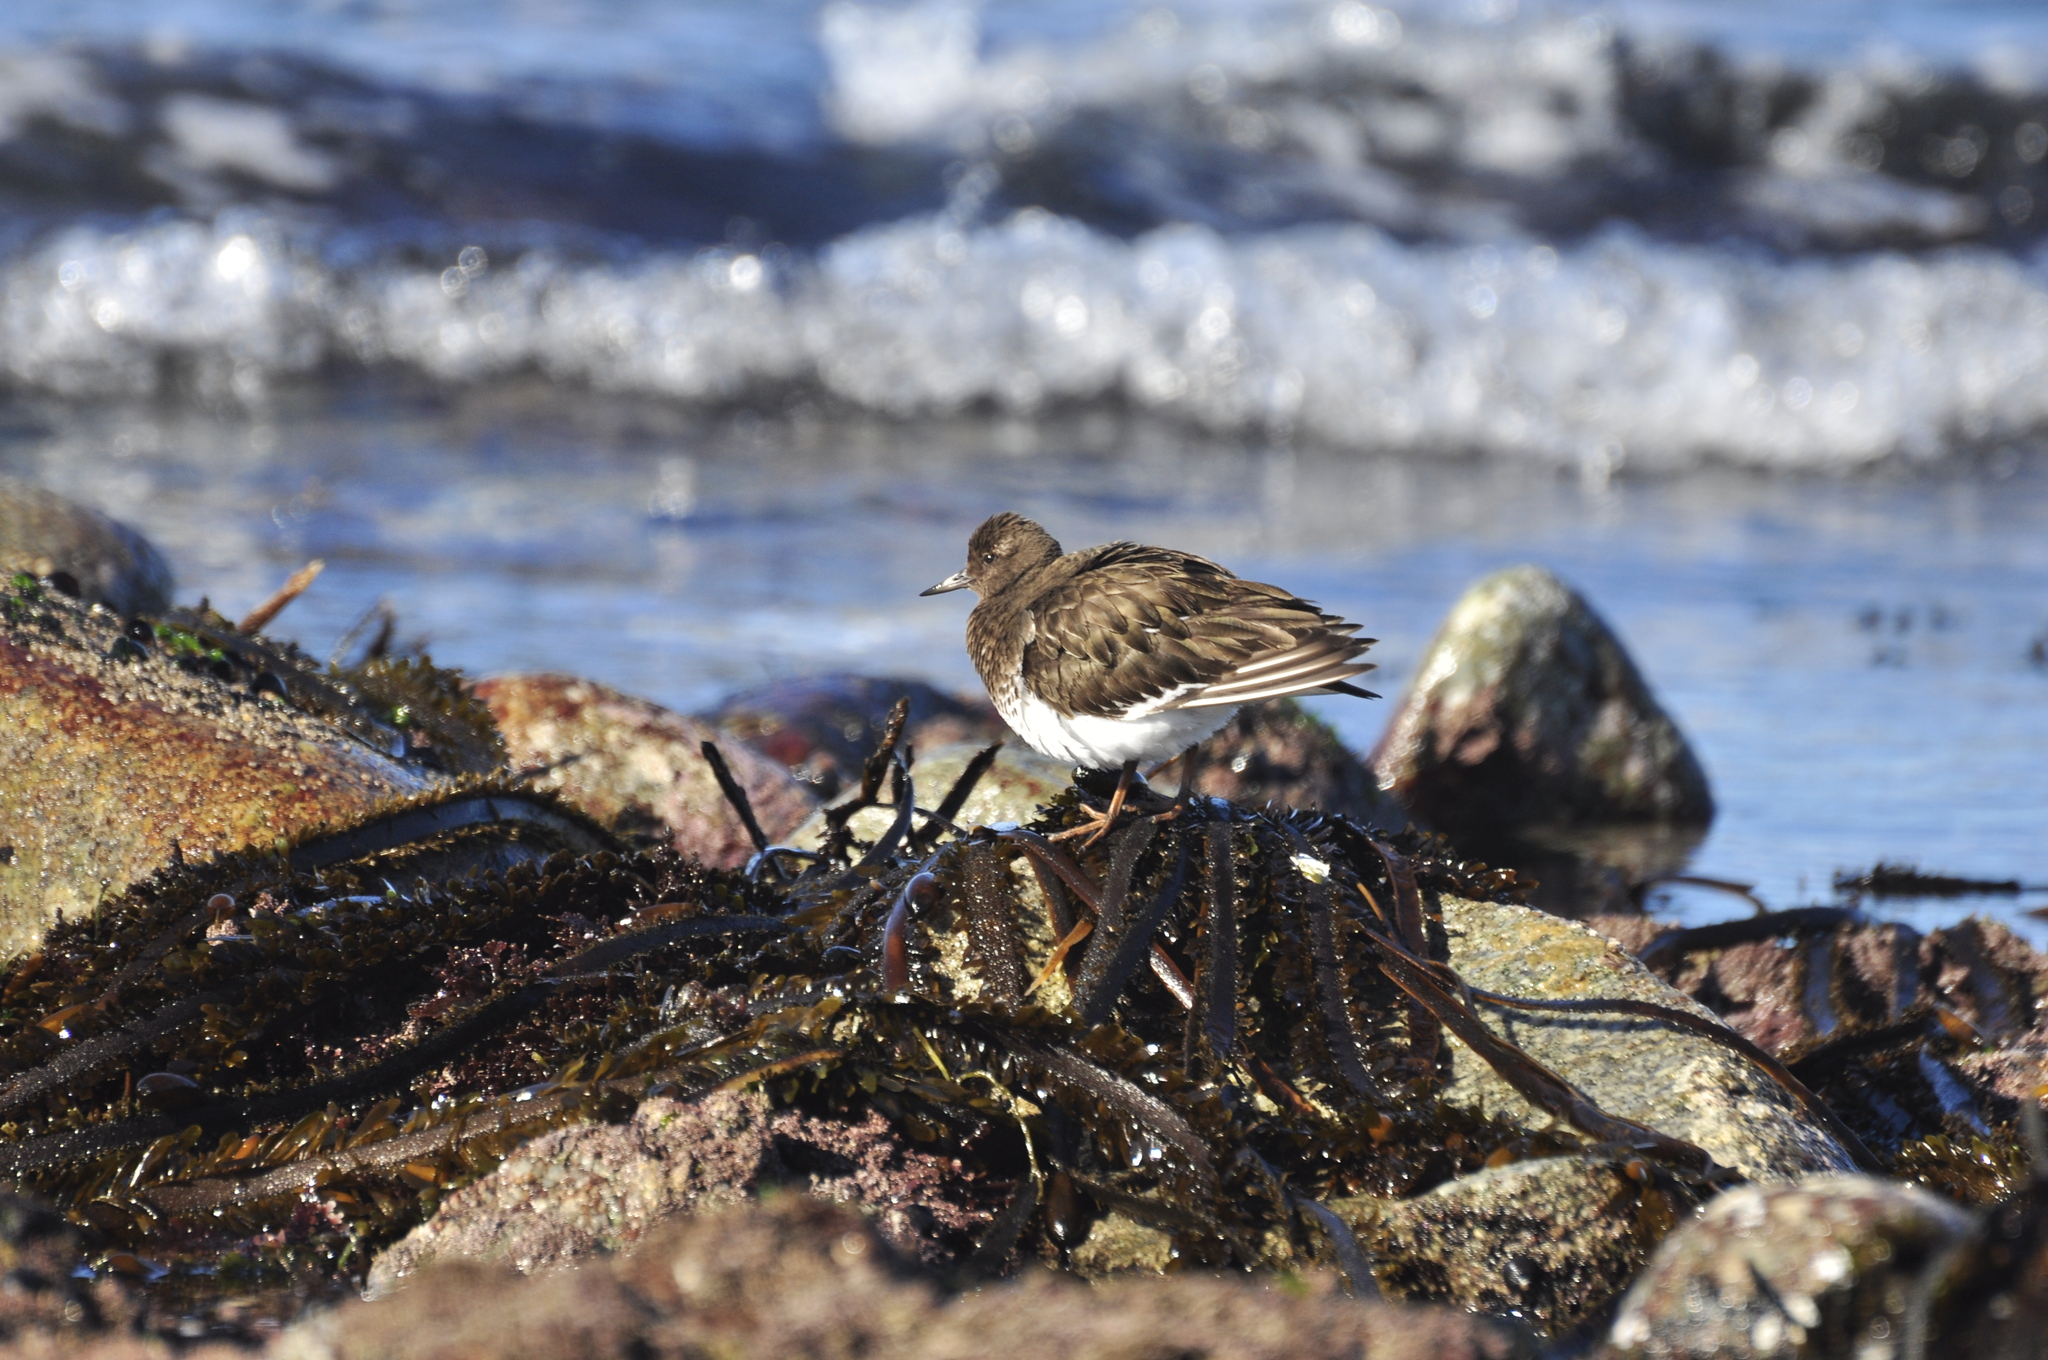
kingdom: Animalia
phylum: Chordata
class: Aves
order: Charadriiformes
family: Scolopacidae
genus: Arenaria
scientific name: Arenaria melanocephala
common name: Black turnstone
